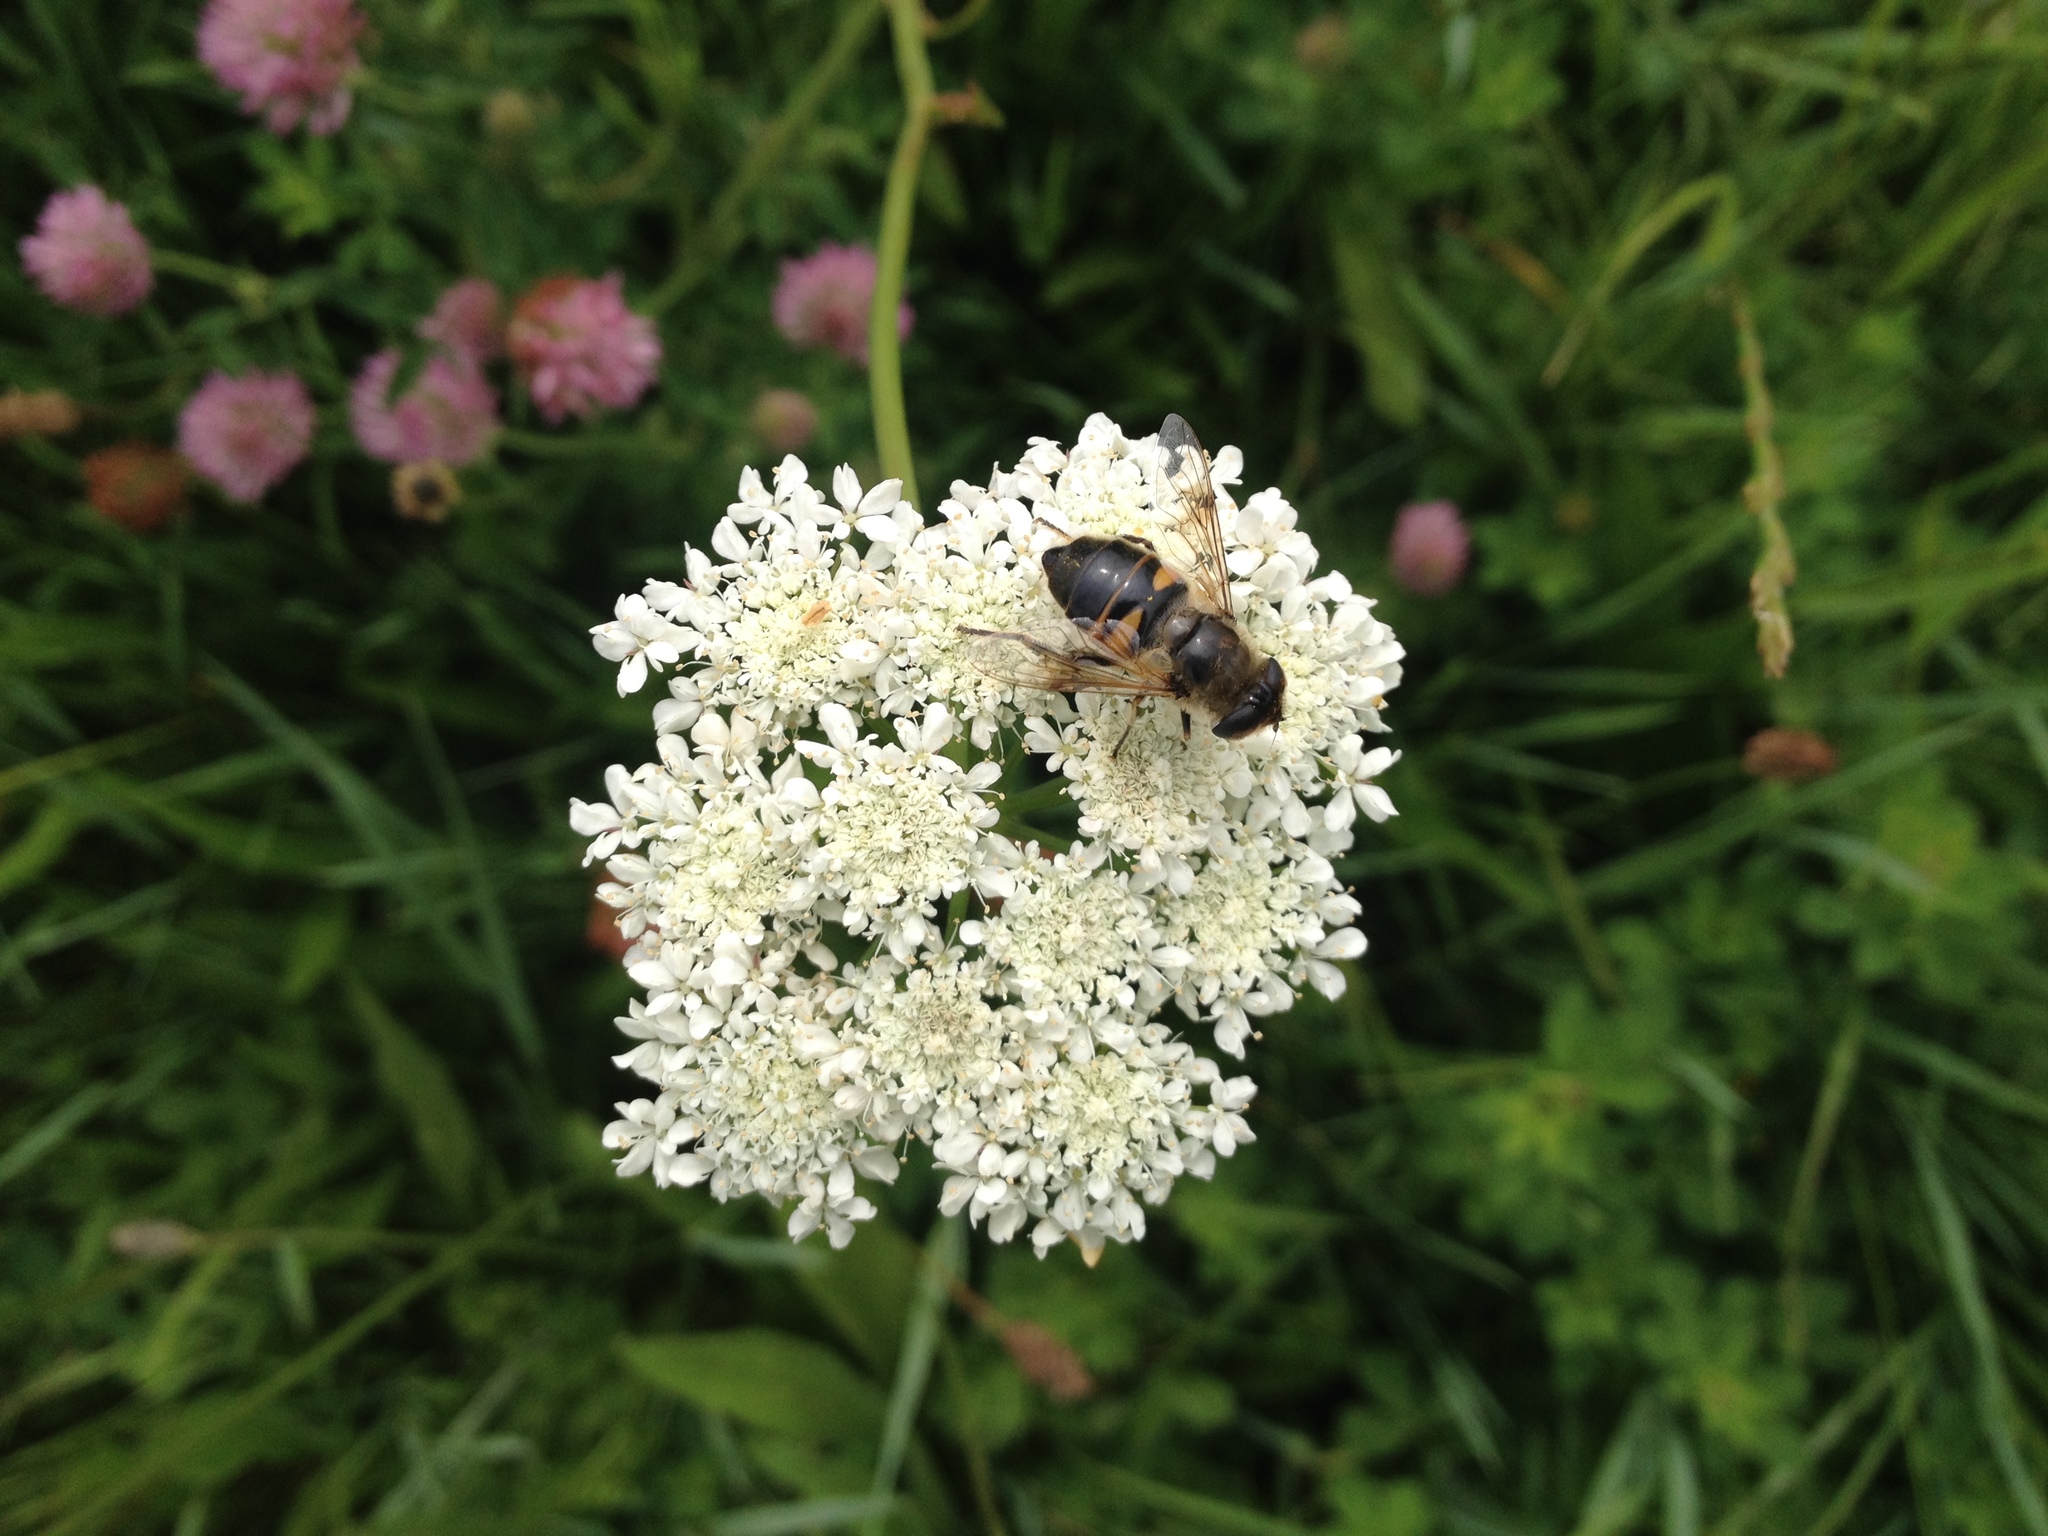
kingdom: Animalia
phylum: Arthropoda
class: Insecta
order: Diptera
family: Syrphidae
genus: Eristalis
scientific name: Eristalis tenax
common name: Drone fly
